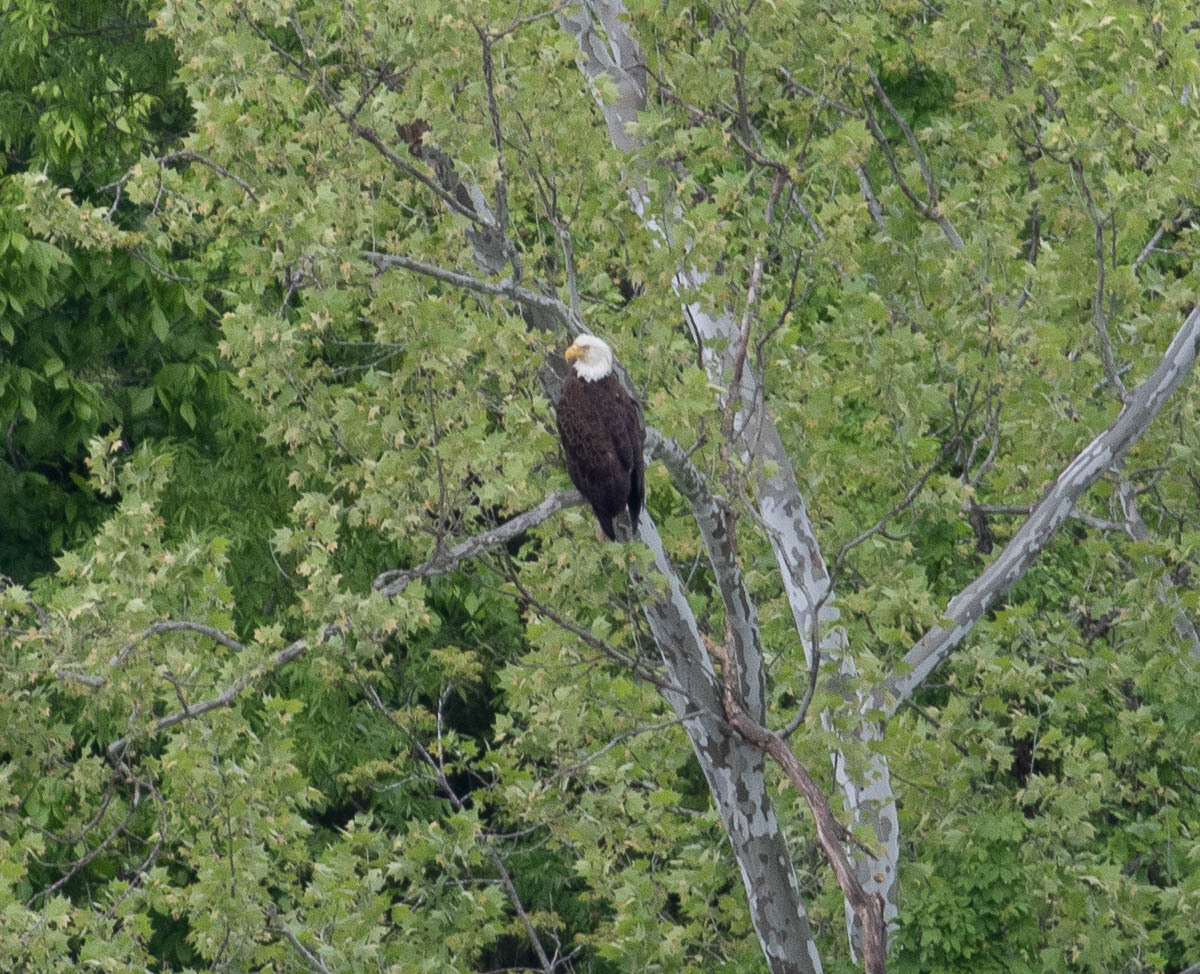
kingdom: Animalia
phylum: Chordata
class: Aves
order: Accipitriformes
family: Accipitridae
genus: Haliaeetus
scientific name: Haliaeetus leucocephalus
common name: Bald eagle
